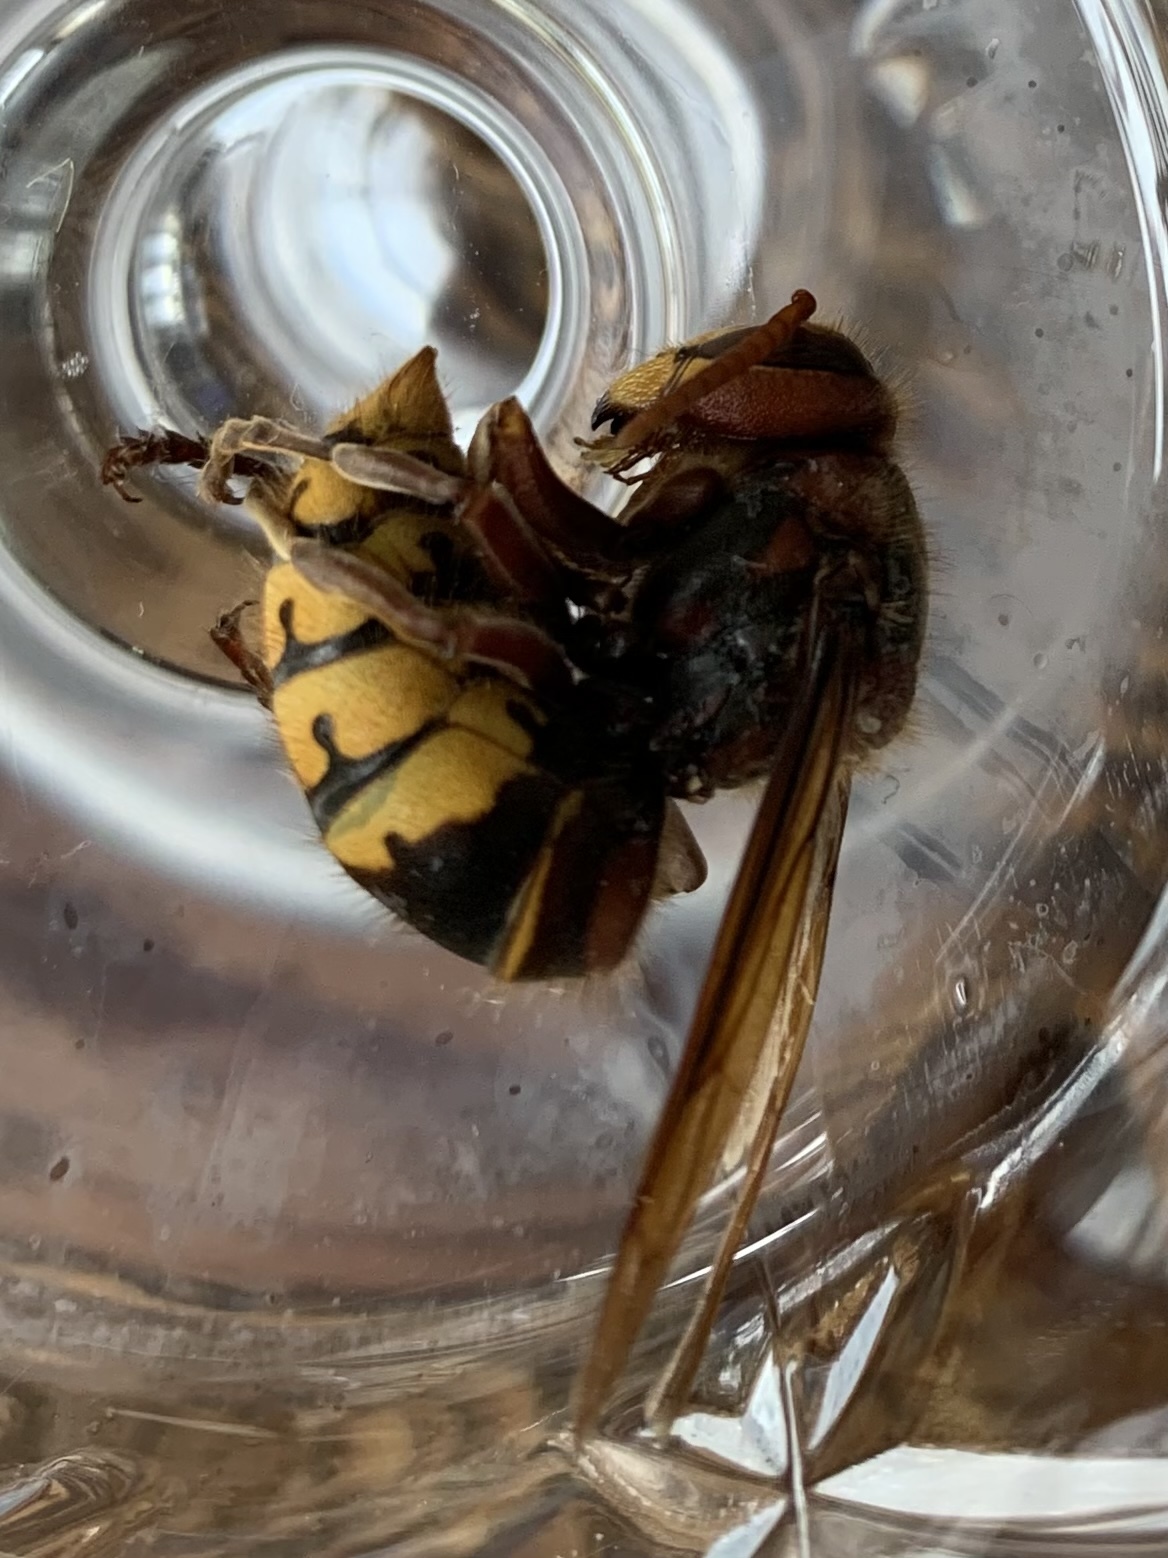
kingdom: Animalia
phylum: Arthropoda
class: Insecta
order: Hymenoptera
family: Vespidae
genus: Vespa
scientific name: Vespa crabro
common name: Hornet
